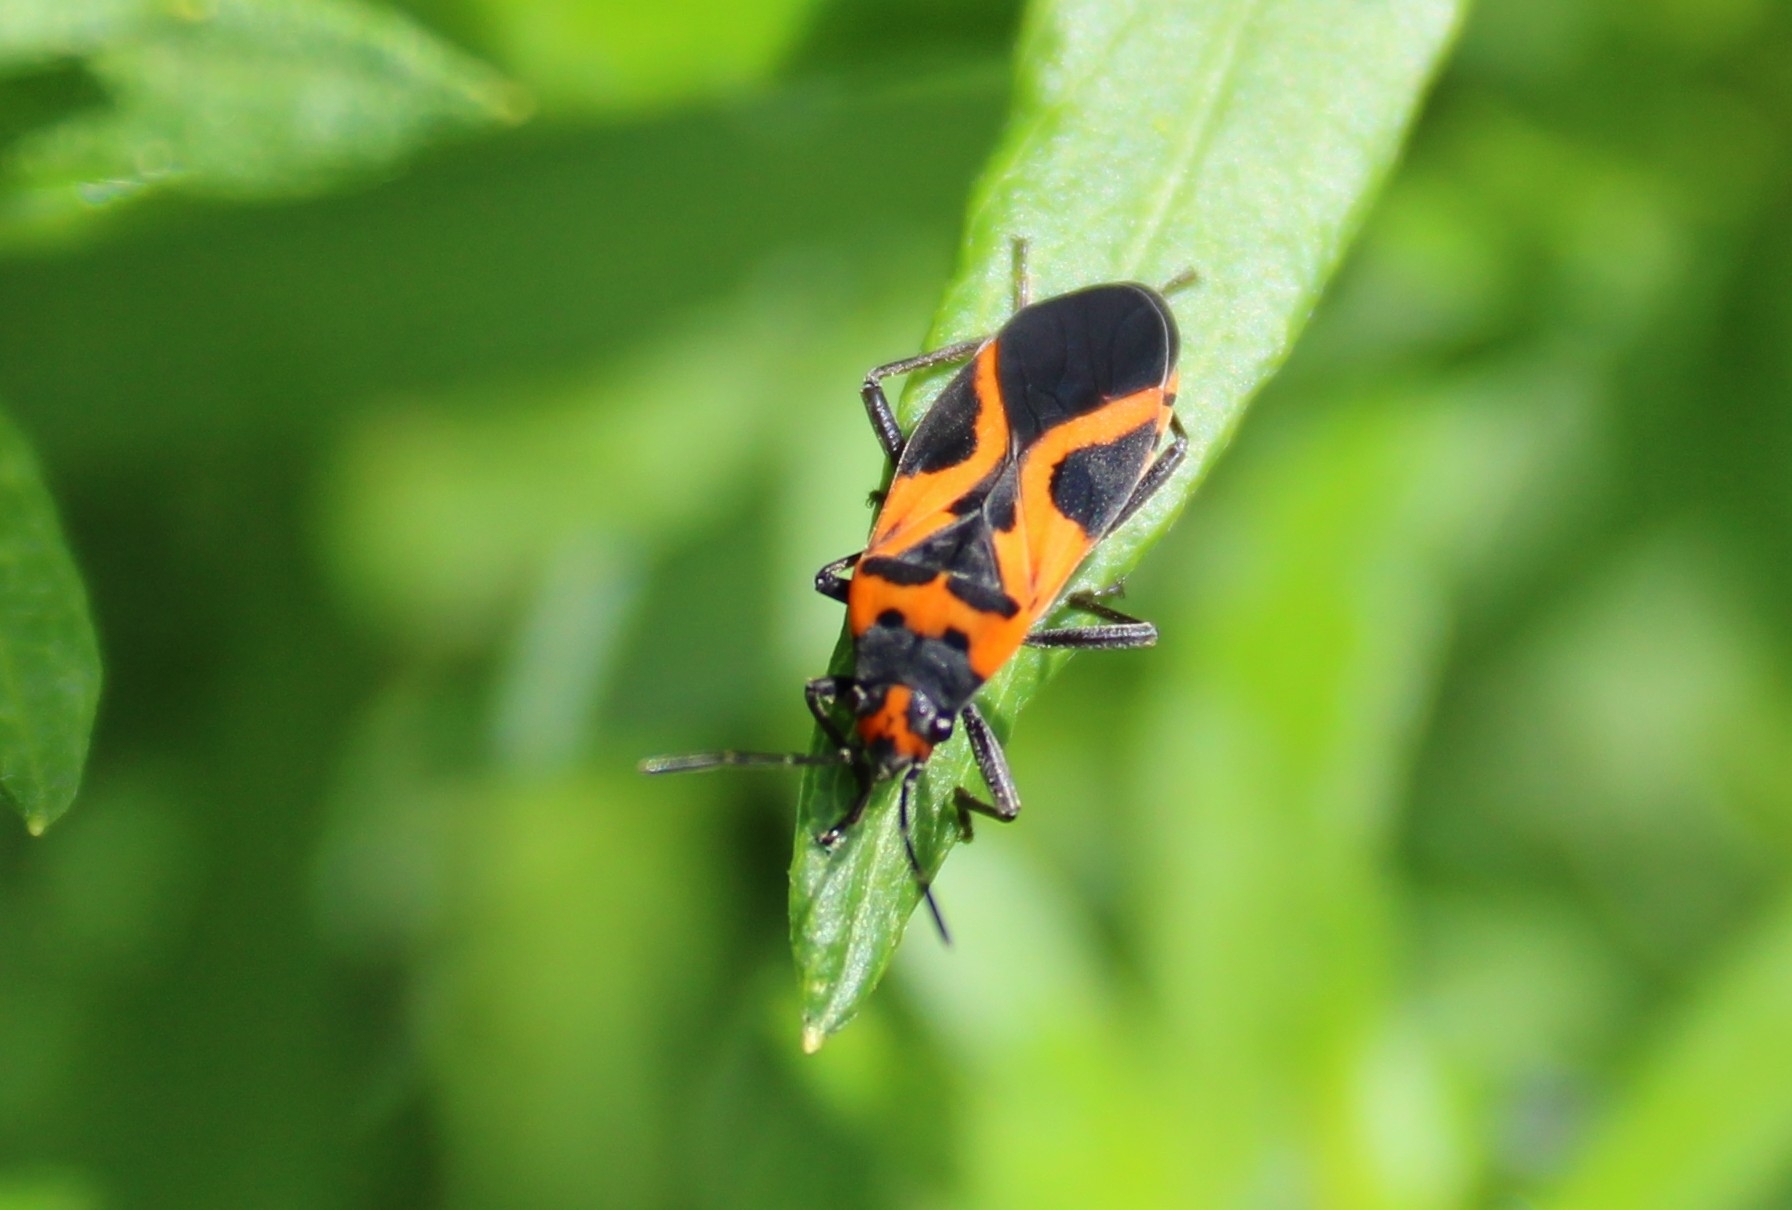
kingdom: Animalia
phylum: Arthropoda
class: Insecta
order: Hemiptera
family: Lygaeidae
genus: Lygaeus
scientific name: Lygaeus turcicus
